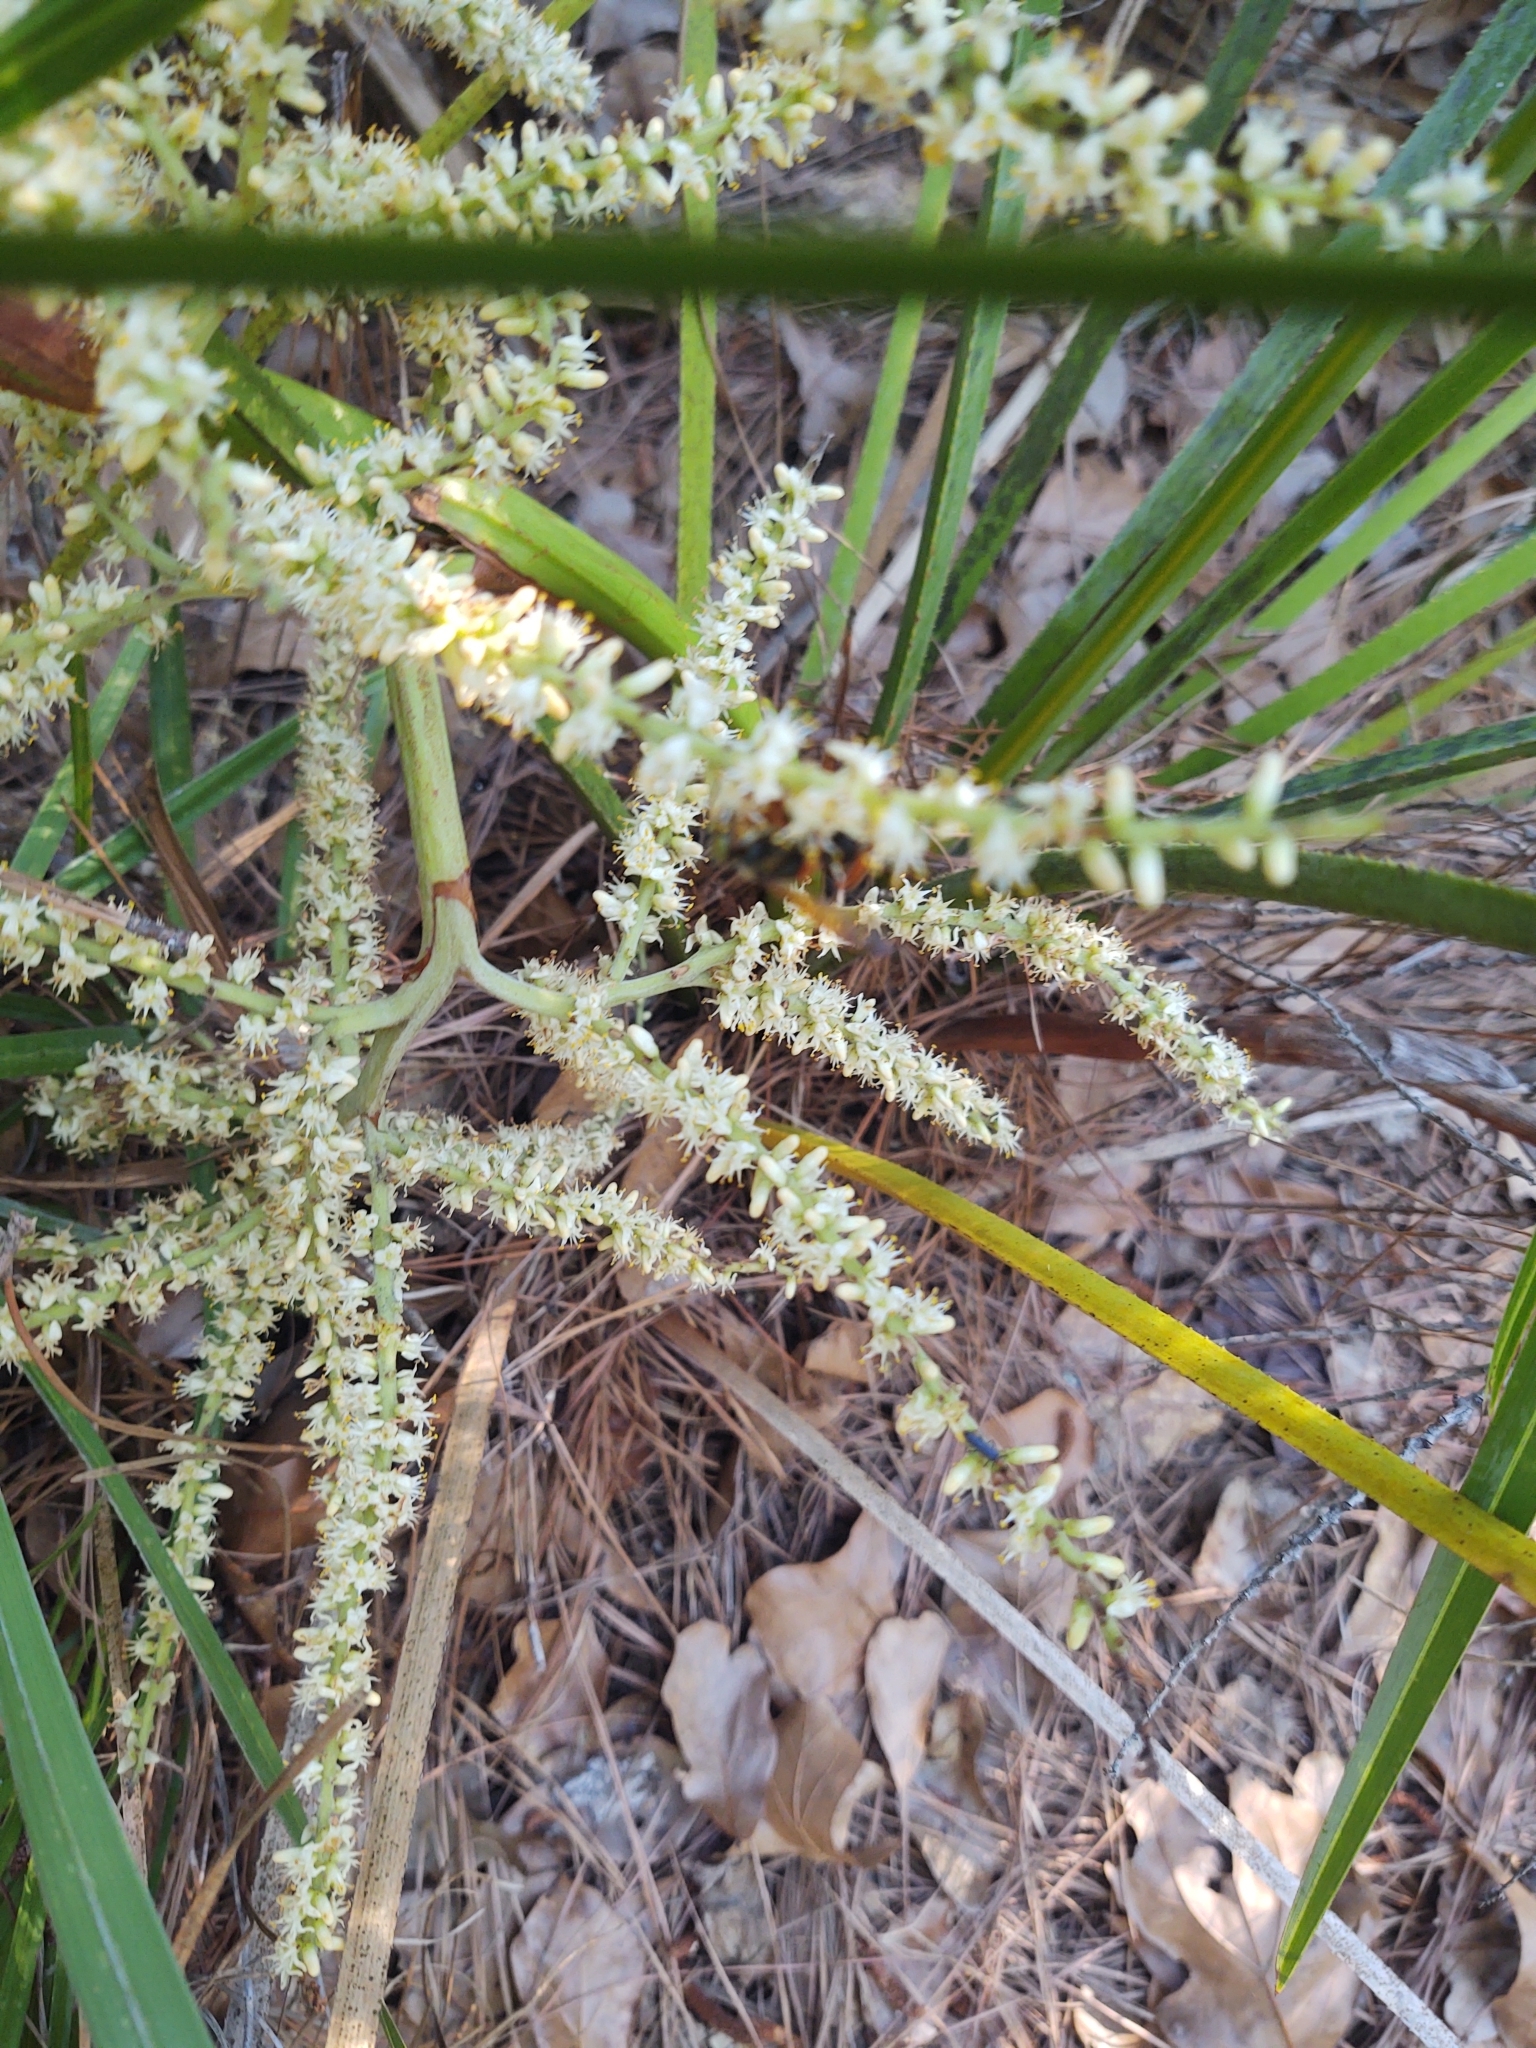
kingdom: Plantae
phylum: Tracheophyta
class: Liliopsida
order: Arecales
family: Arecaceae
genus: Serenoa
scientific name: Serenoa repens
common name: Saw-palmetto
